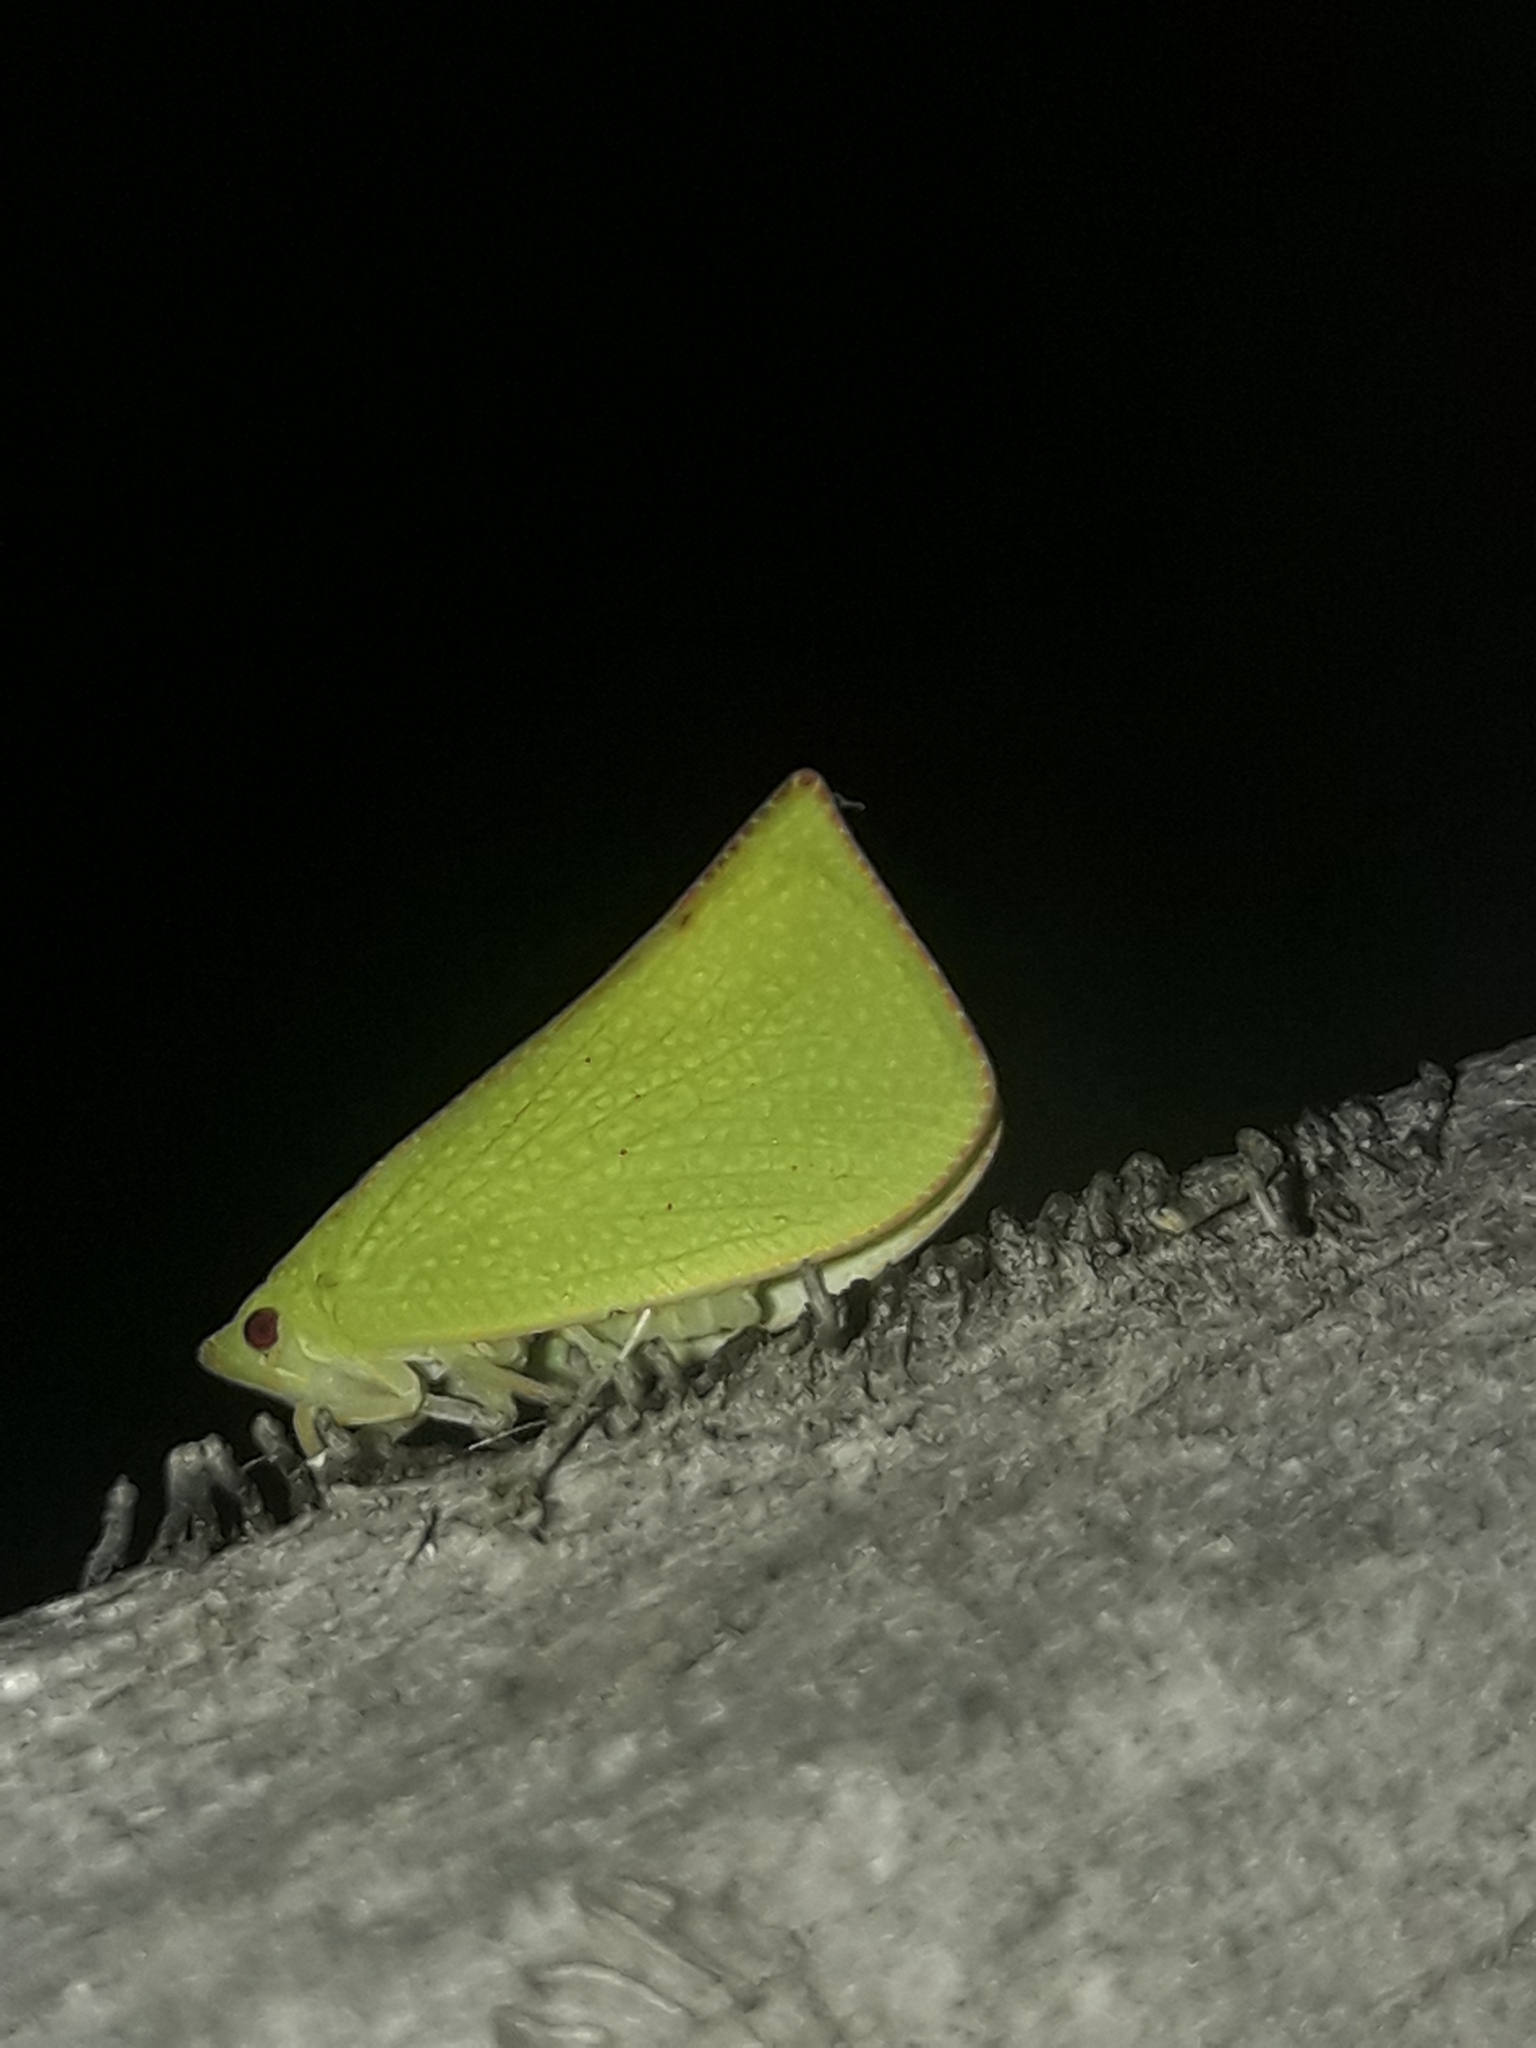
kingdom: Animalia
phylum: Arthropoda
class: Insecta
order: Hemiptera
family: Flatidae
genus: Siphanta
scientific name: Siphanta acuta
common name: Torpedo bug
